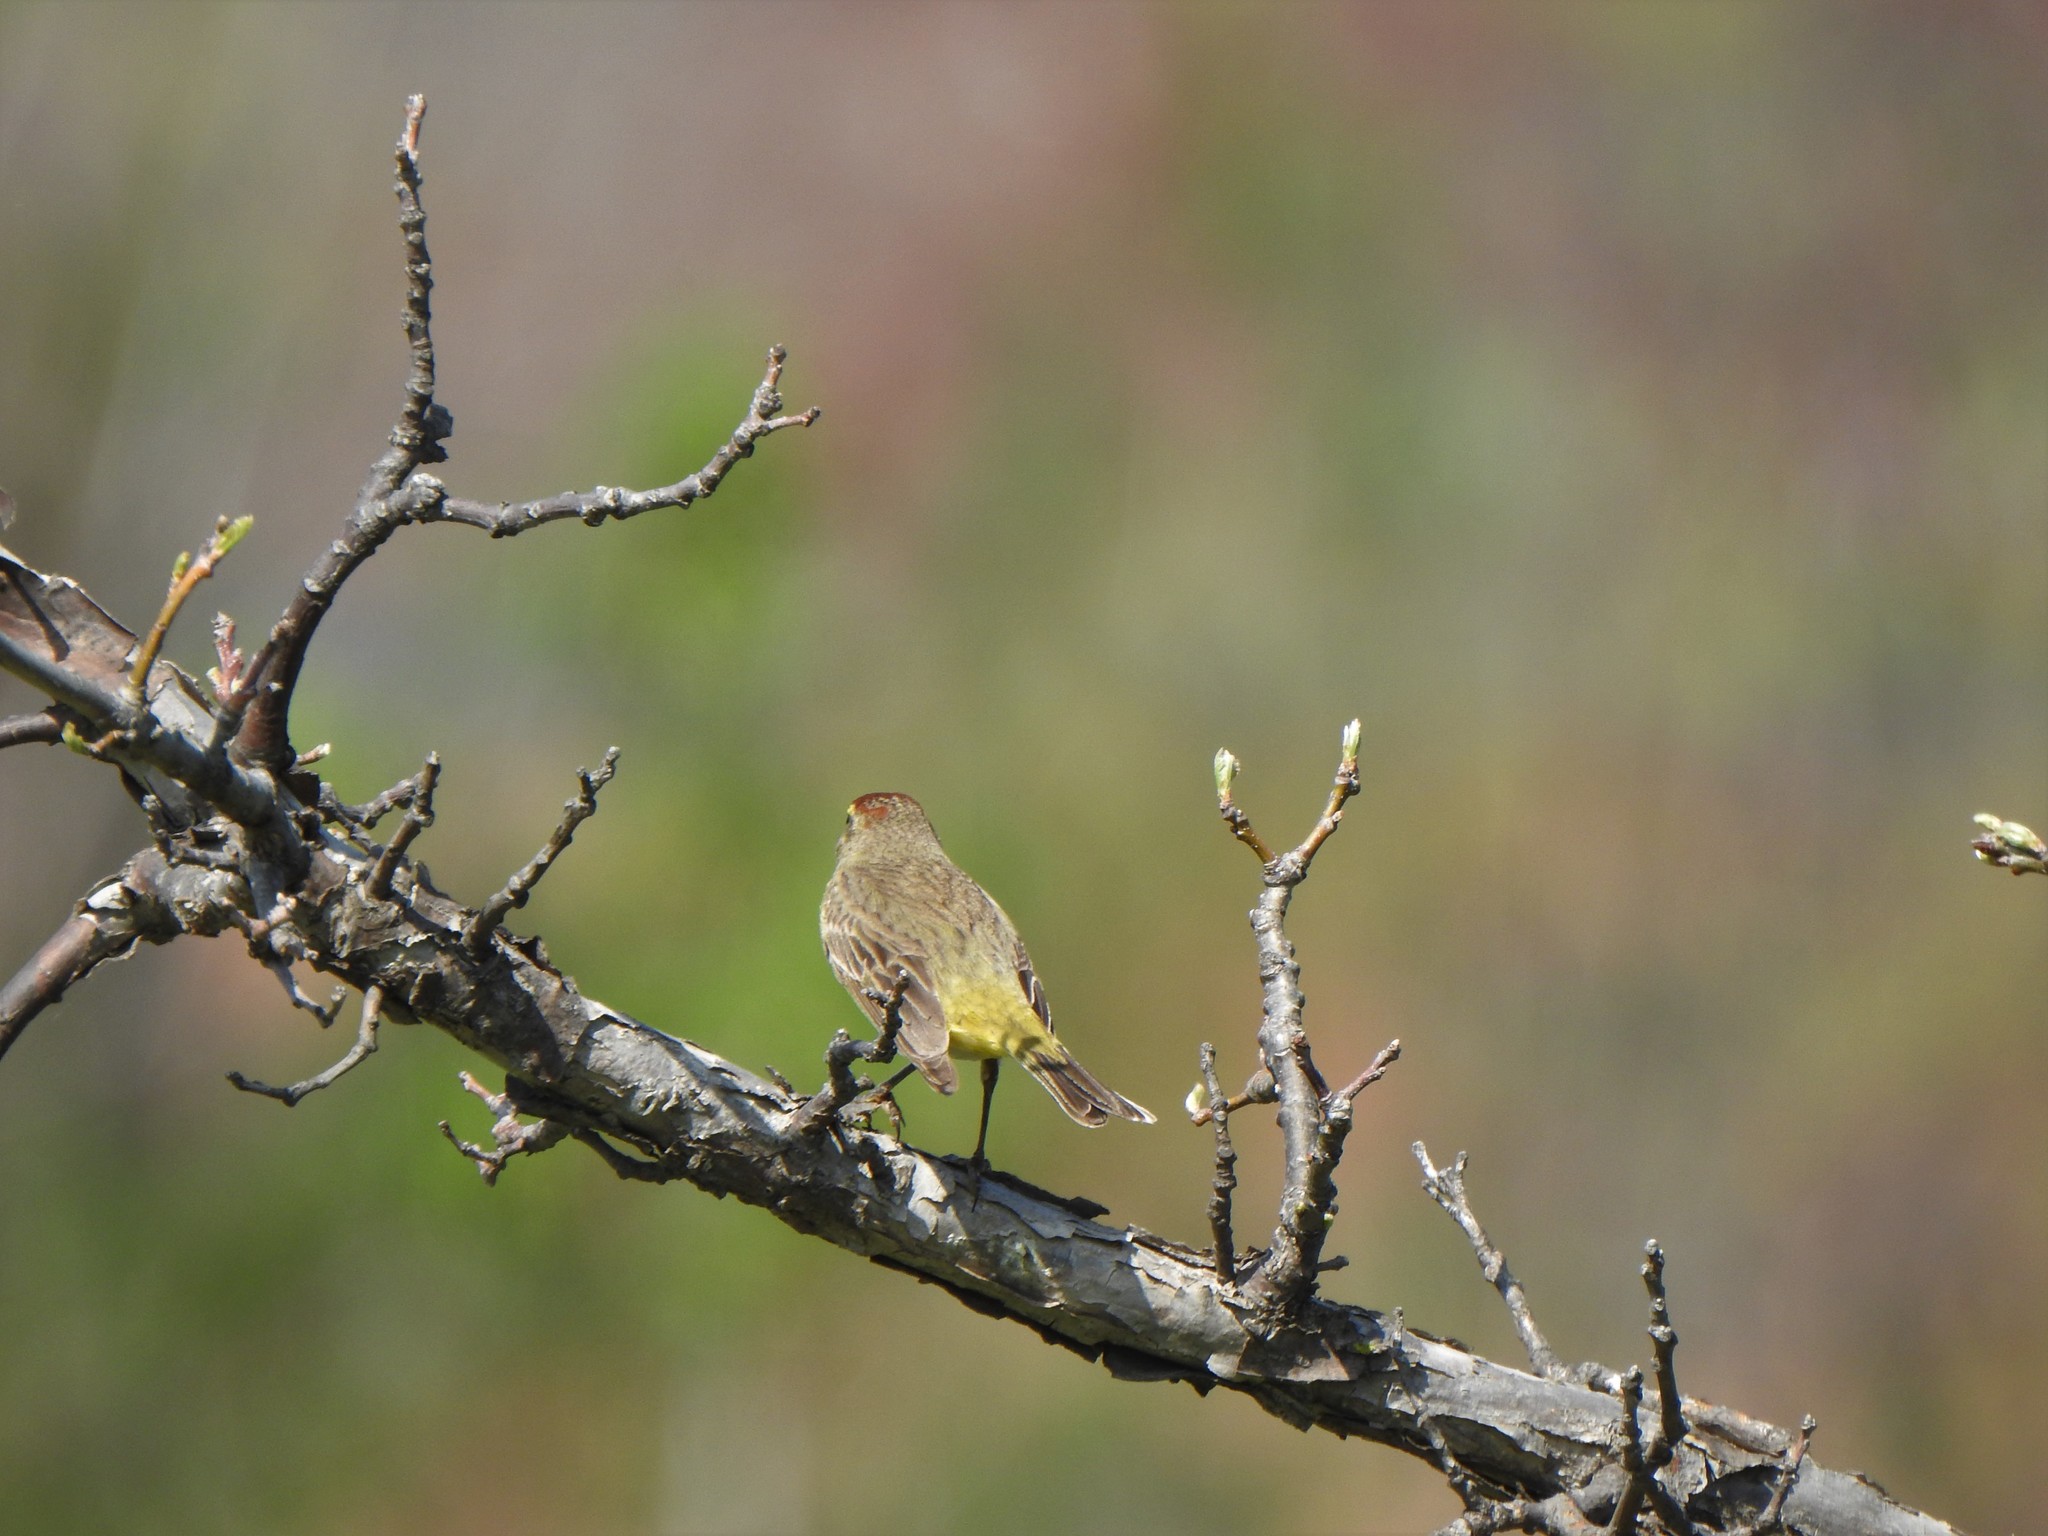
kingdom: Animalia
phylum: Chordata
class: Aves
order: Passeriformes
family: Parulidae
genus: Setophaga
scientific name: Setophaga palmarum
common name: Palm warbler
